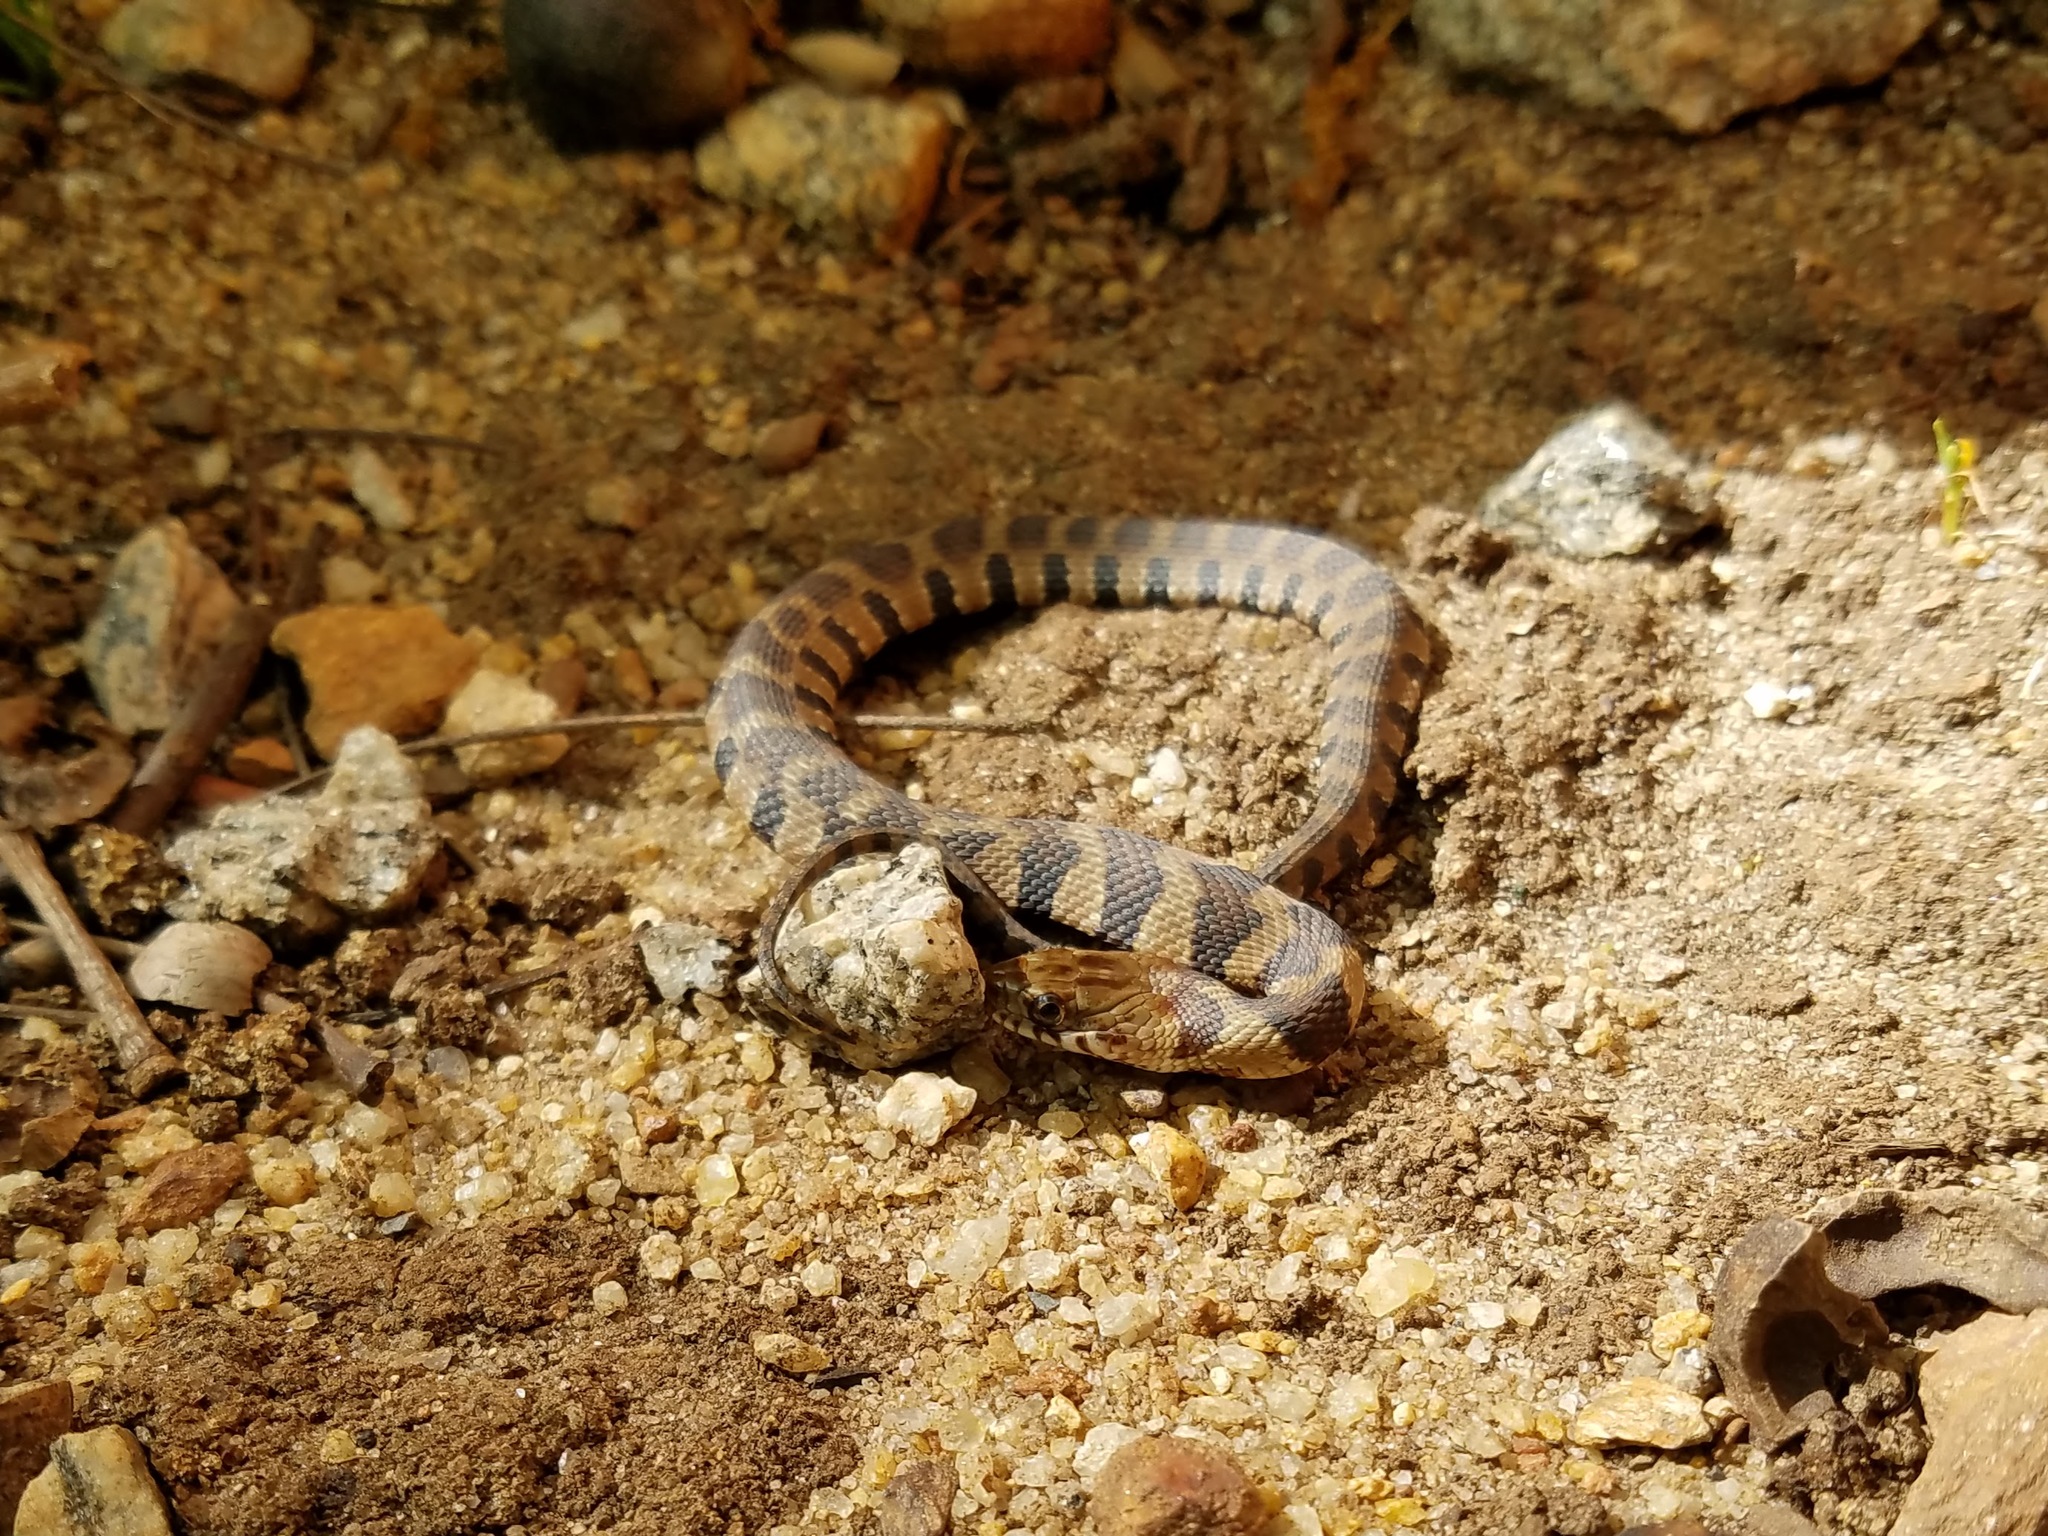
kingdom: Animalia
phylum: Chordata
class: Squamata
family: Colubridae
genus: Nerodia
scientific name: Nerodia sipedon
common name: Northern water snake
